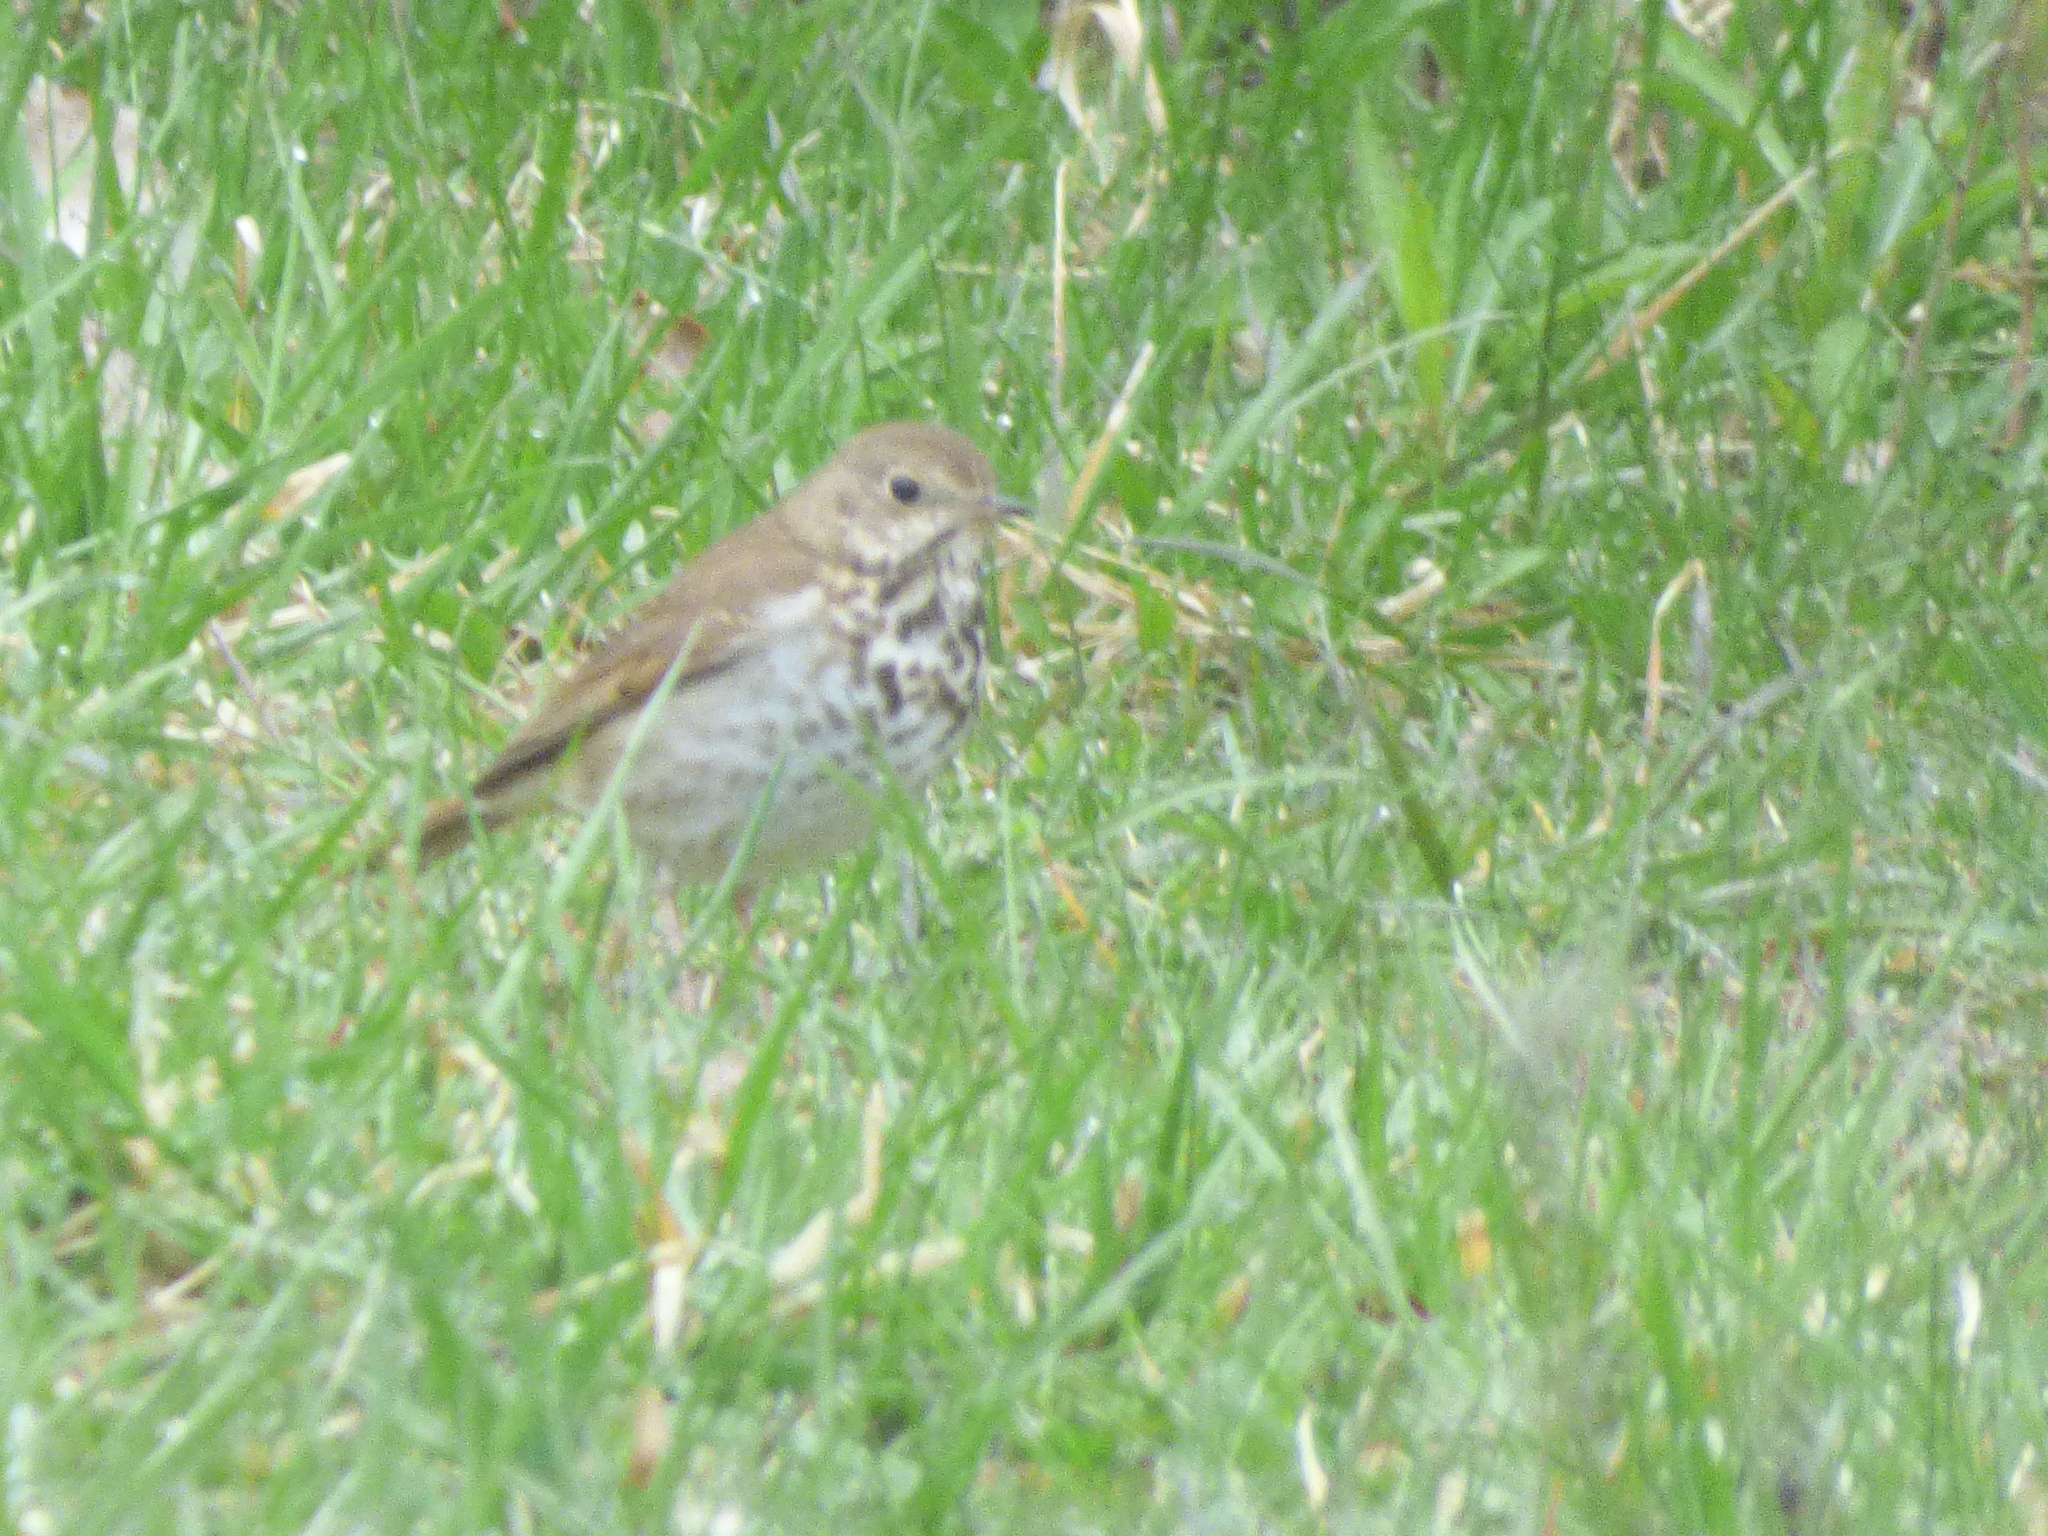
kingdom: Animalia
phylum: Chordata
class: Aves
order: Passeriformes
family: Turdidae
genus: Catharus
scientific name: Catharus guttatus
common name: Hermit thrush
